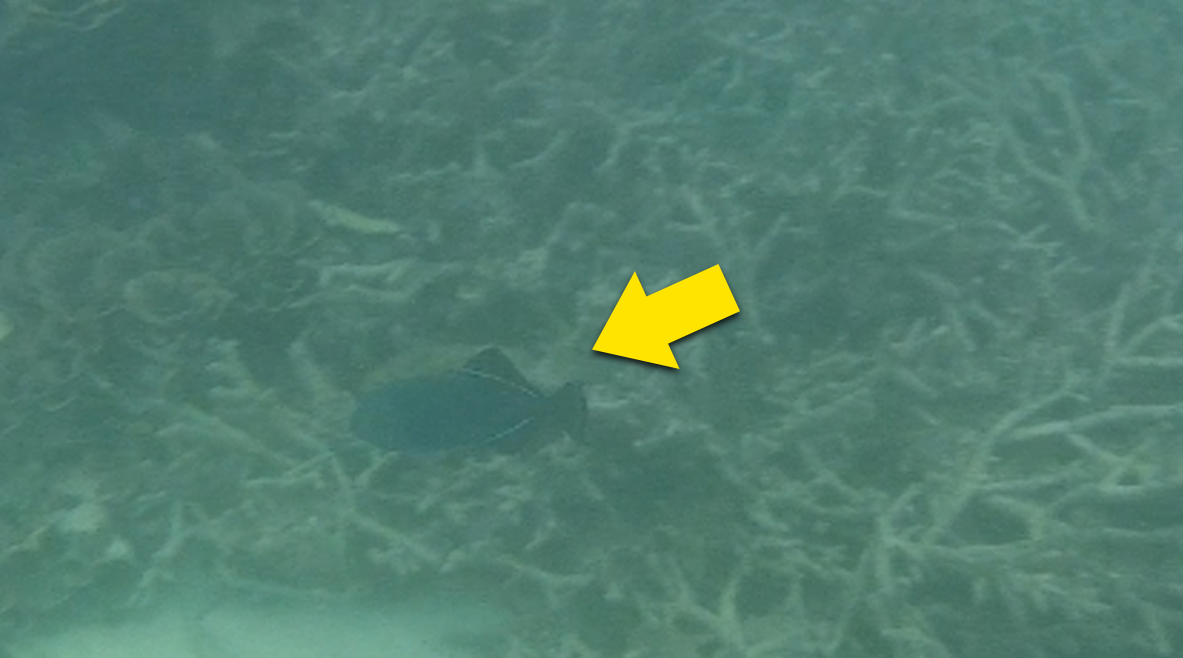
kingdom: Animalia
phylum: Chordata
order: Tetraodontiformes
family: Balistidae
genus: Melichthys
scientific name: Melichthys indicus
